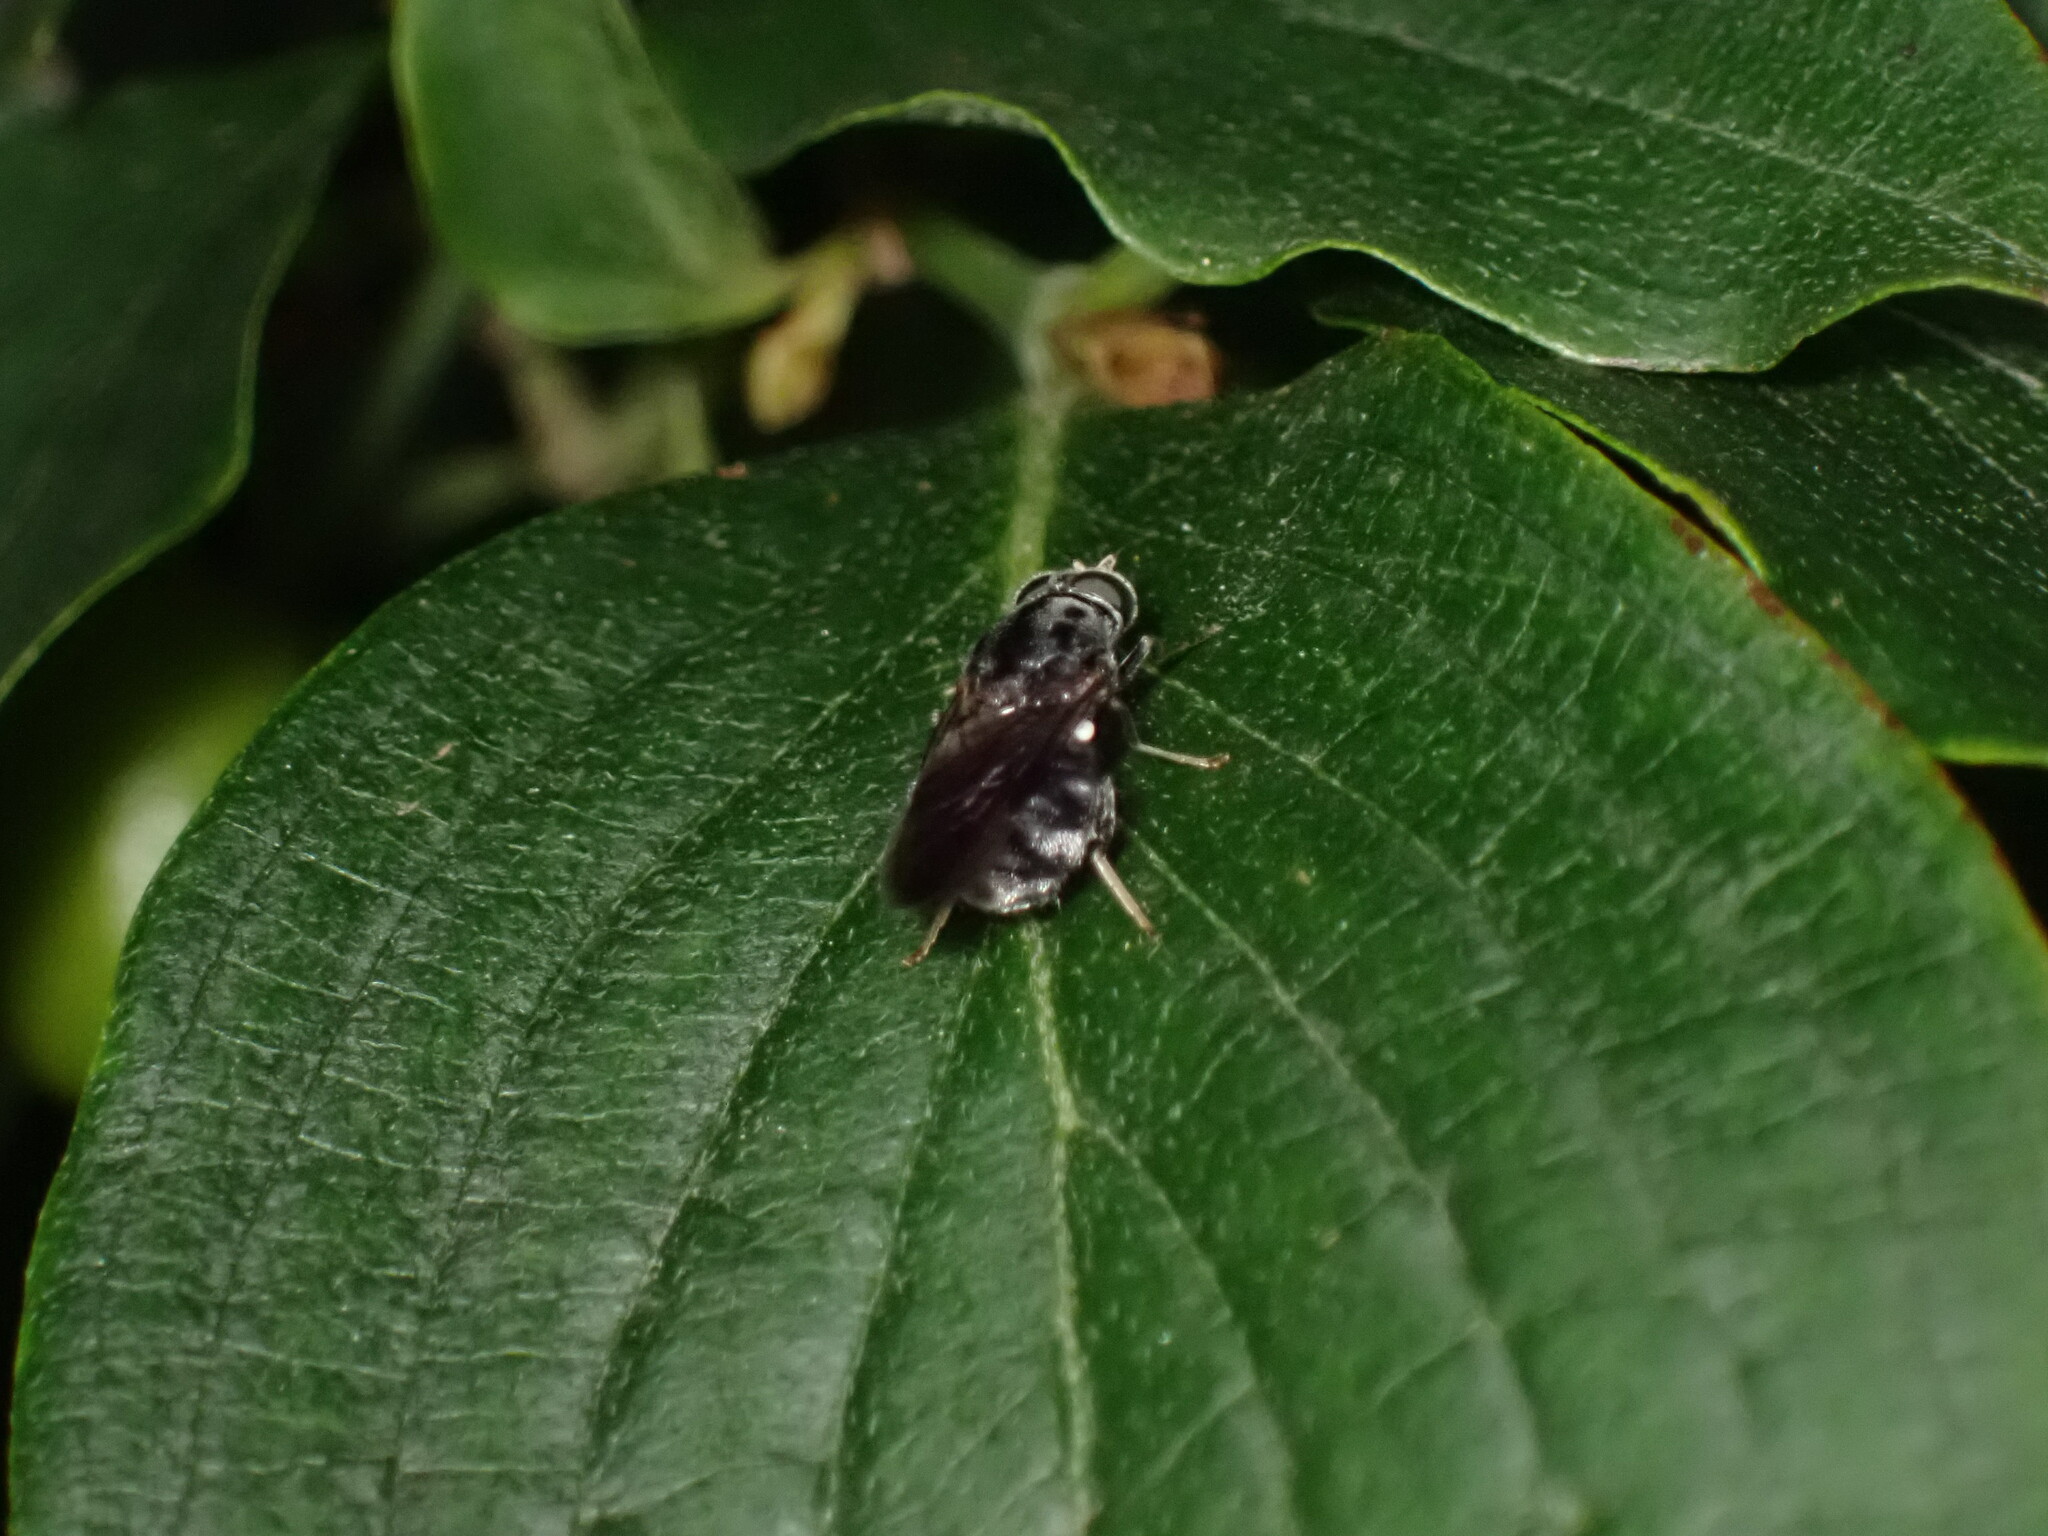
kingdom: Animalia
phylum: Arthropoda
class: Insecta
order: Diptera
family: Stratiomyidae
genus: Adoxomyia
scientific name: Adoxomyia subulata
